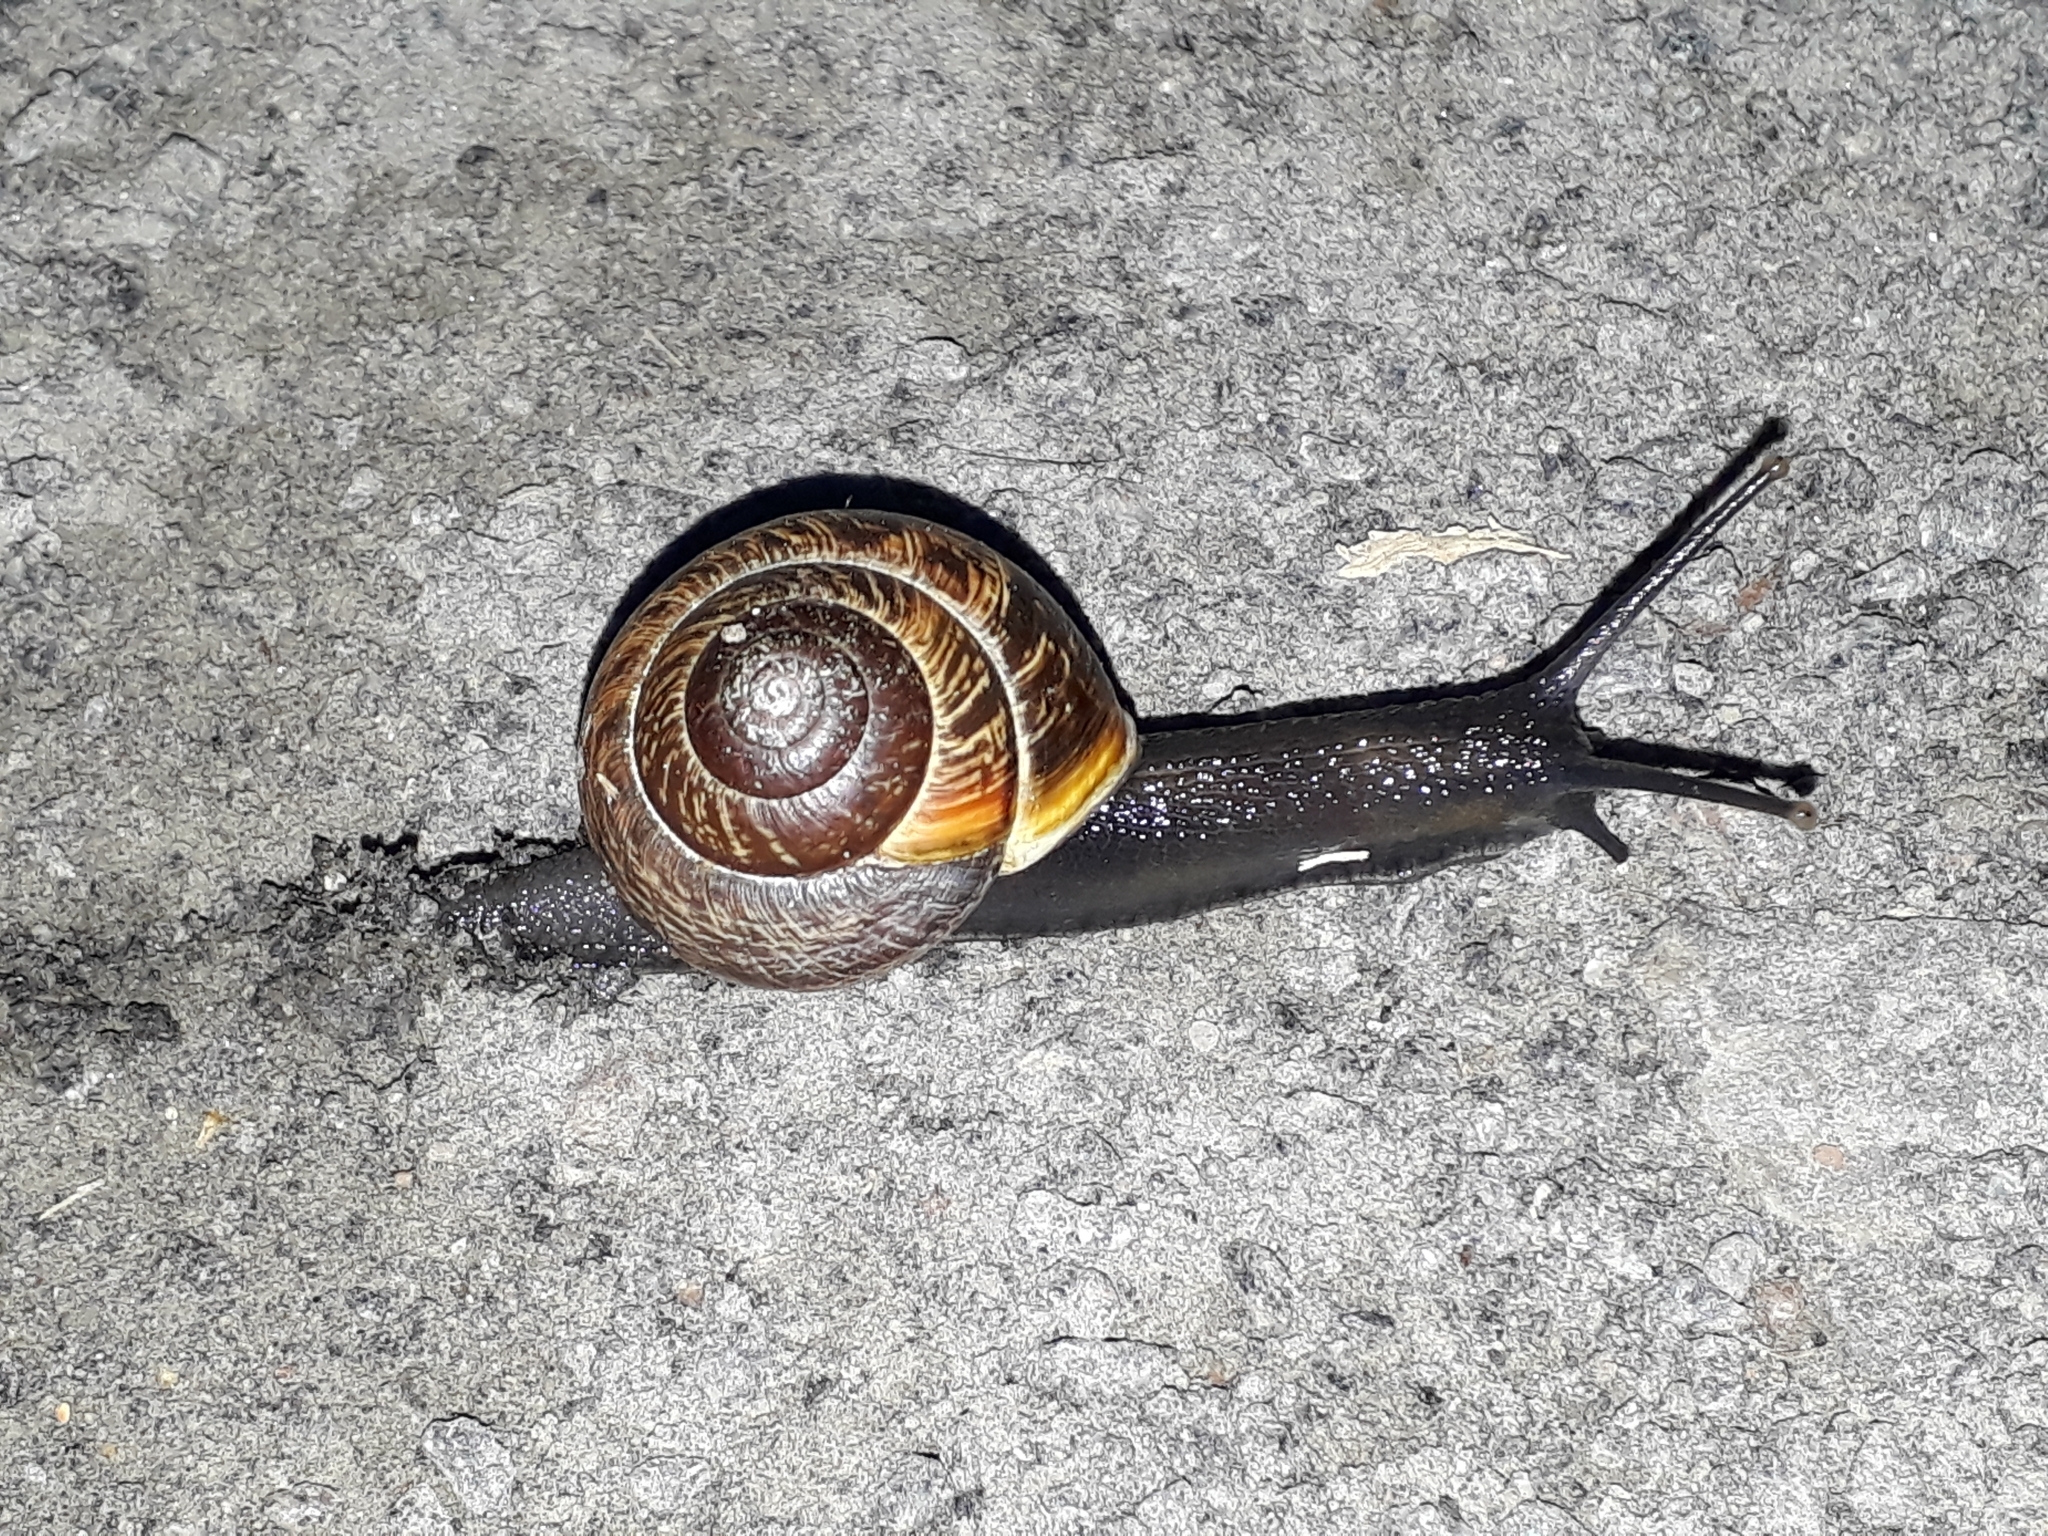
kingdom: Animalia
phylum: Mollusca
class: Gastropoda
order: Stylommatophora
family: Helicidae
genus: Arianta
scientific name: Arianta arbustorum
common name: Copse snail
